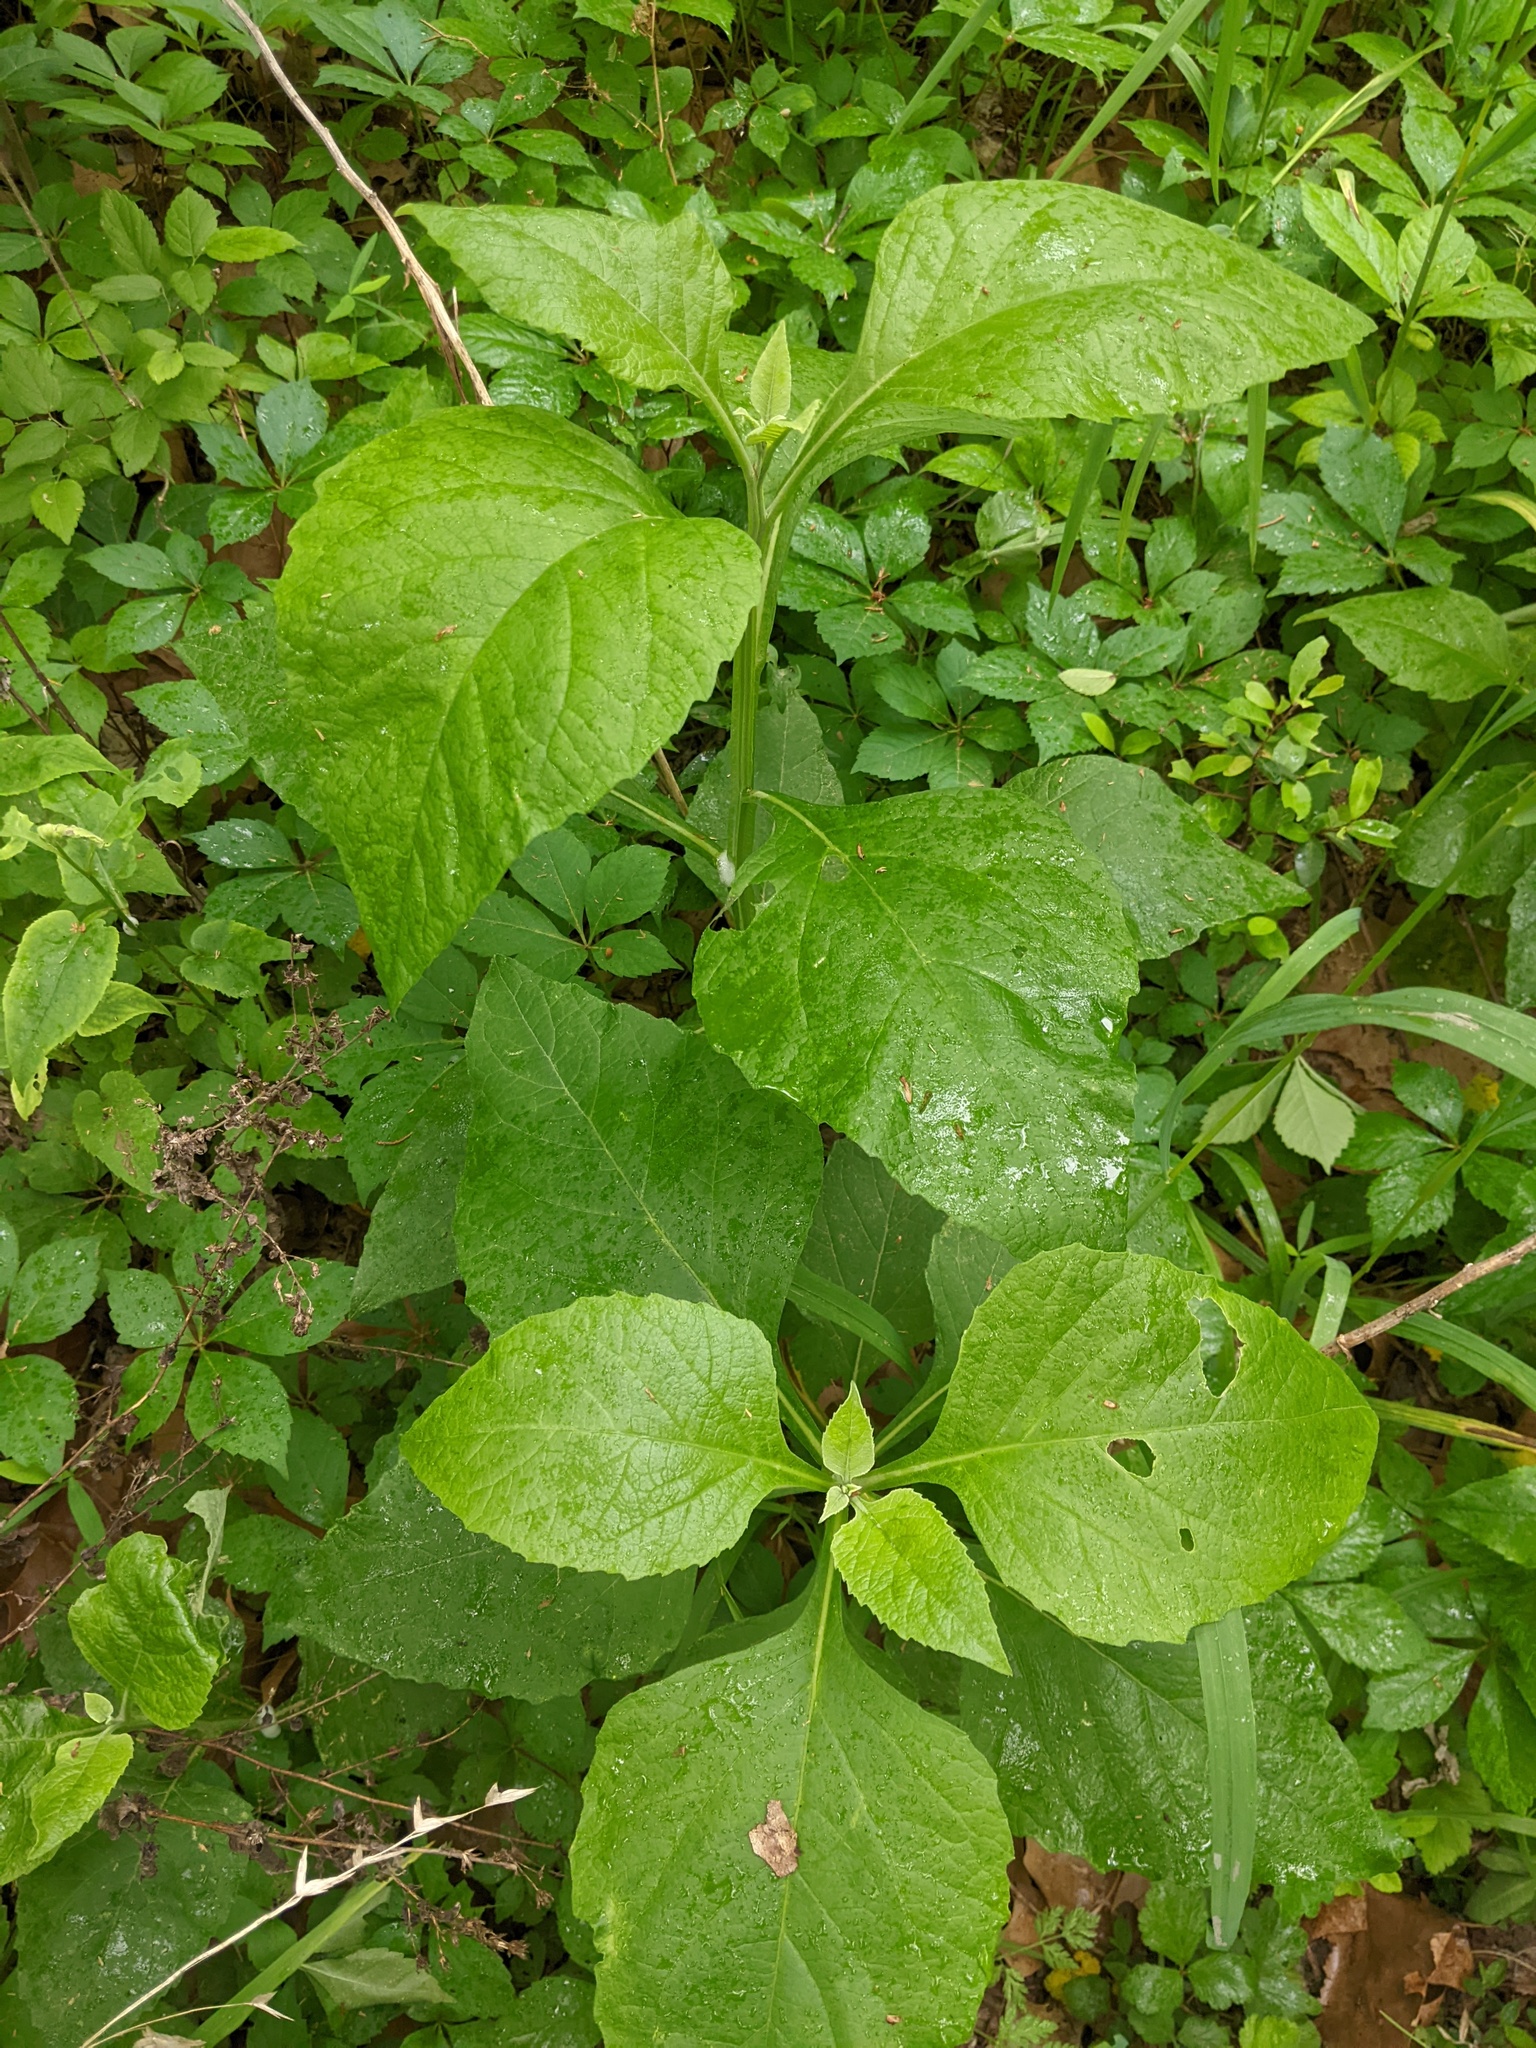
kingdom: Plantae
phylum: Tracheophyta
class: Magnoliopsida
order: Asterales
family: Asteraceae
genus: Verbesina
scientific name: Verbesina virginica
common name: Frostweed
